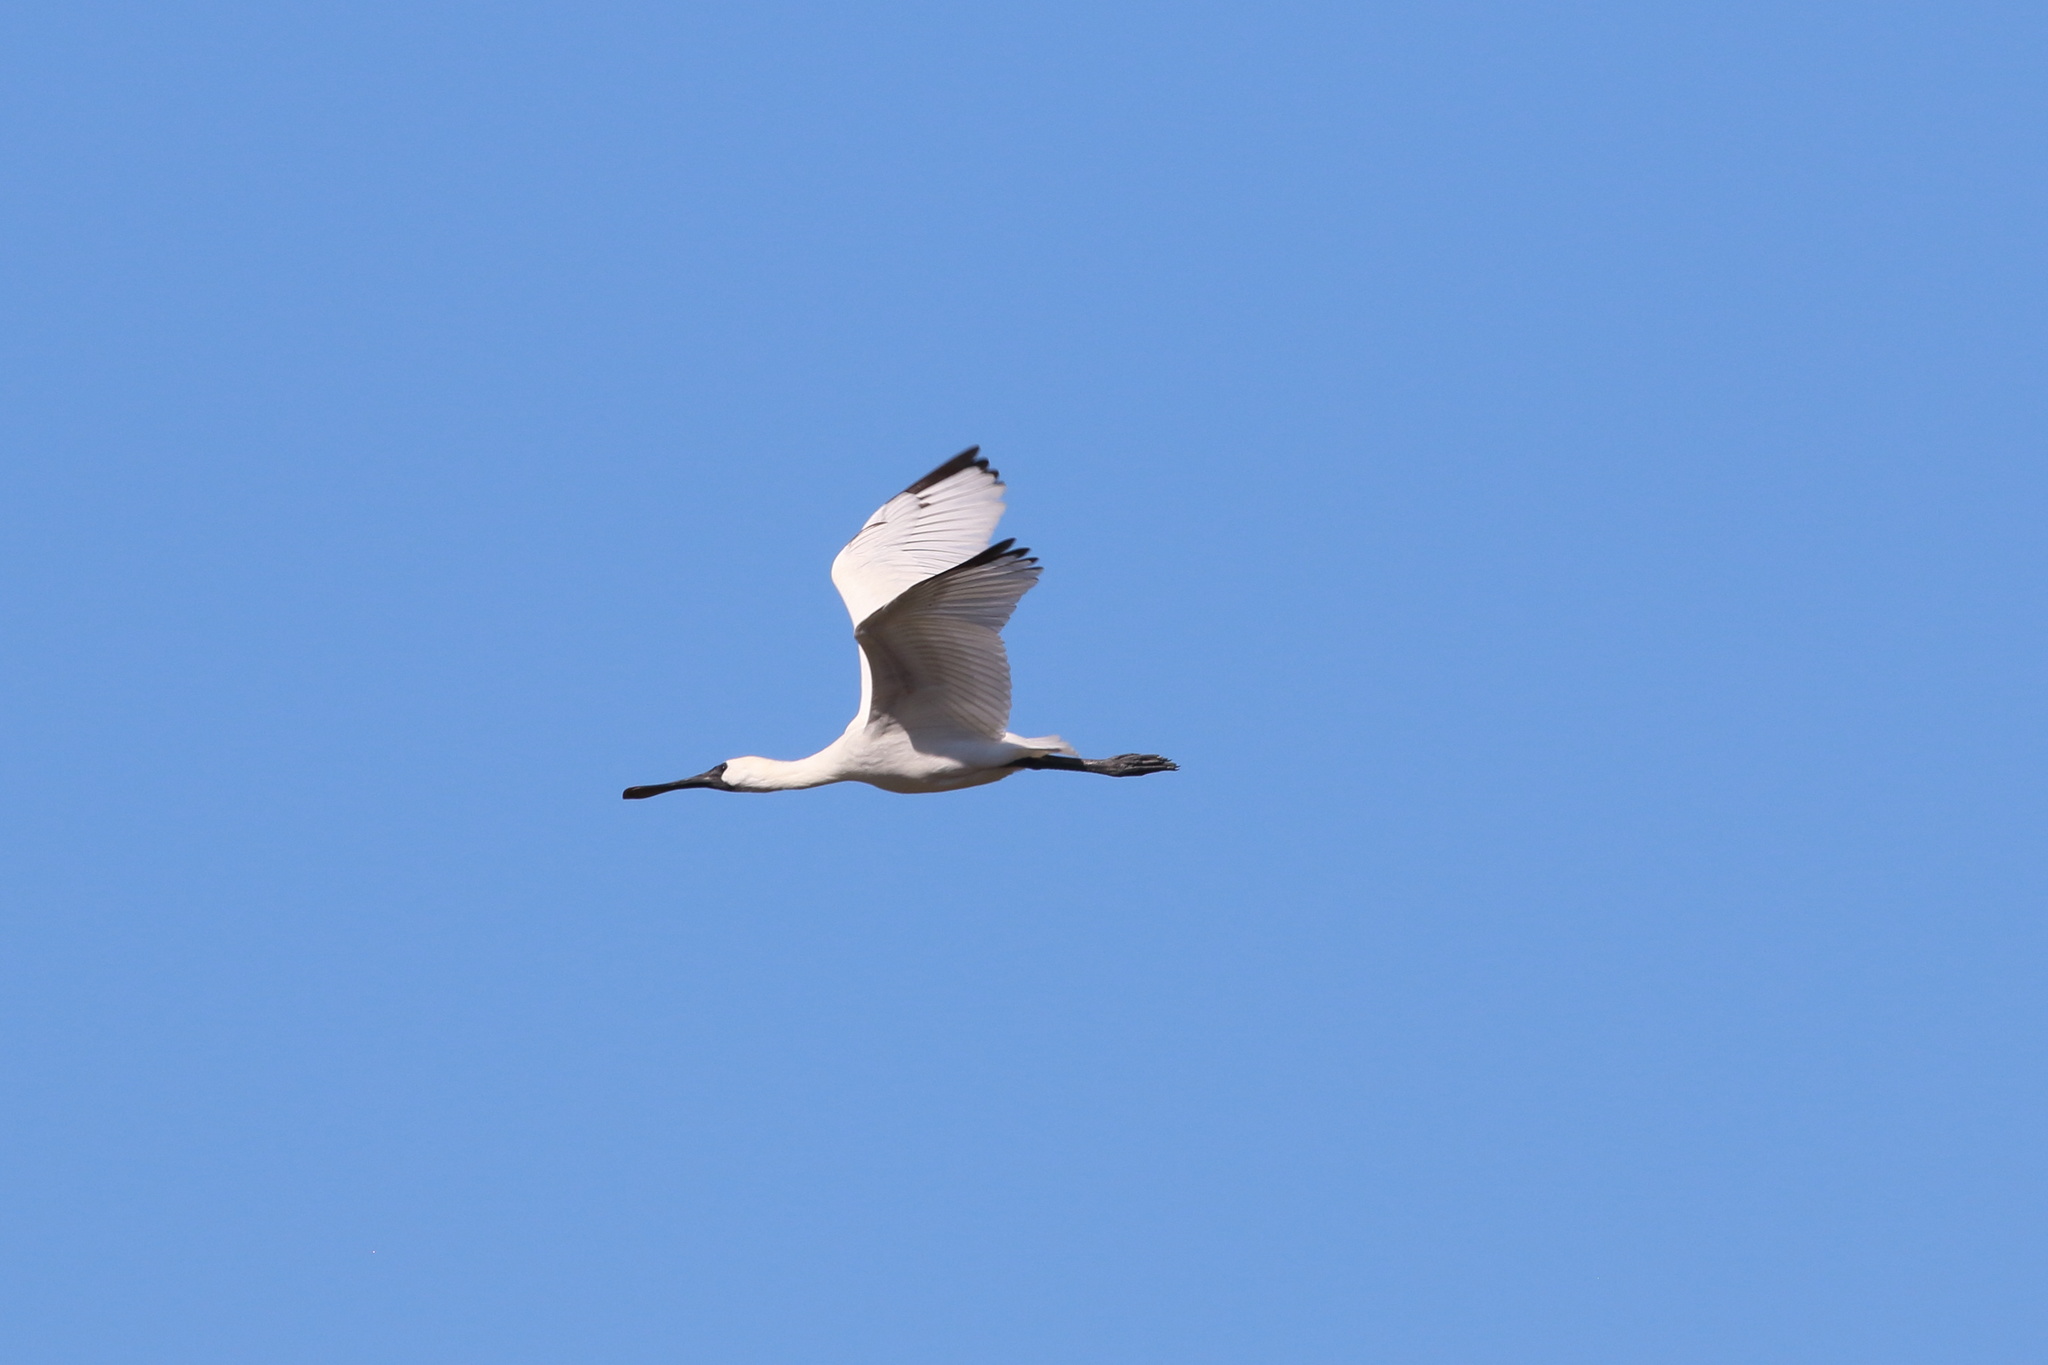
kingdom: Animalia
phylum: Chordata
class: Aves
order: Pelecaniformes
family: Threskiornithidae
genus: Platalea
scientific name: Platalea regia
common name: Royal spoonbill
